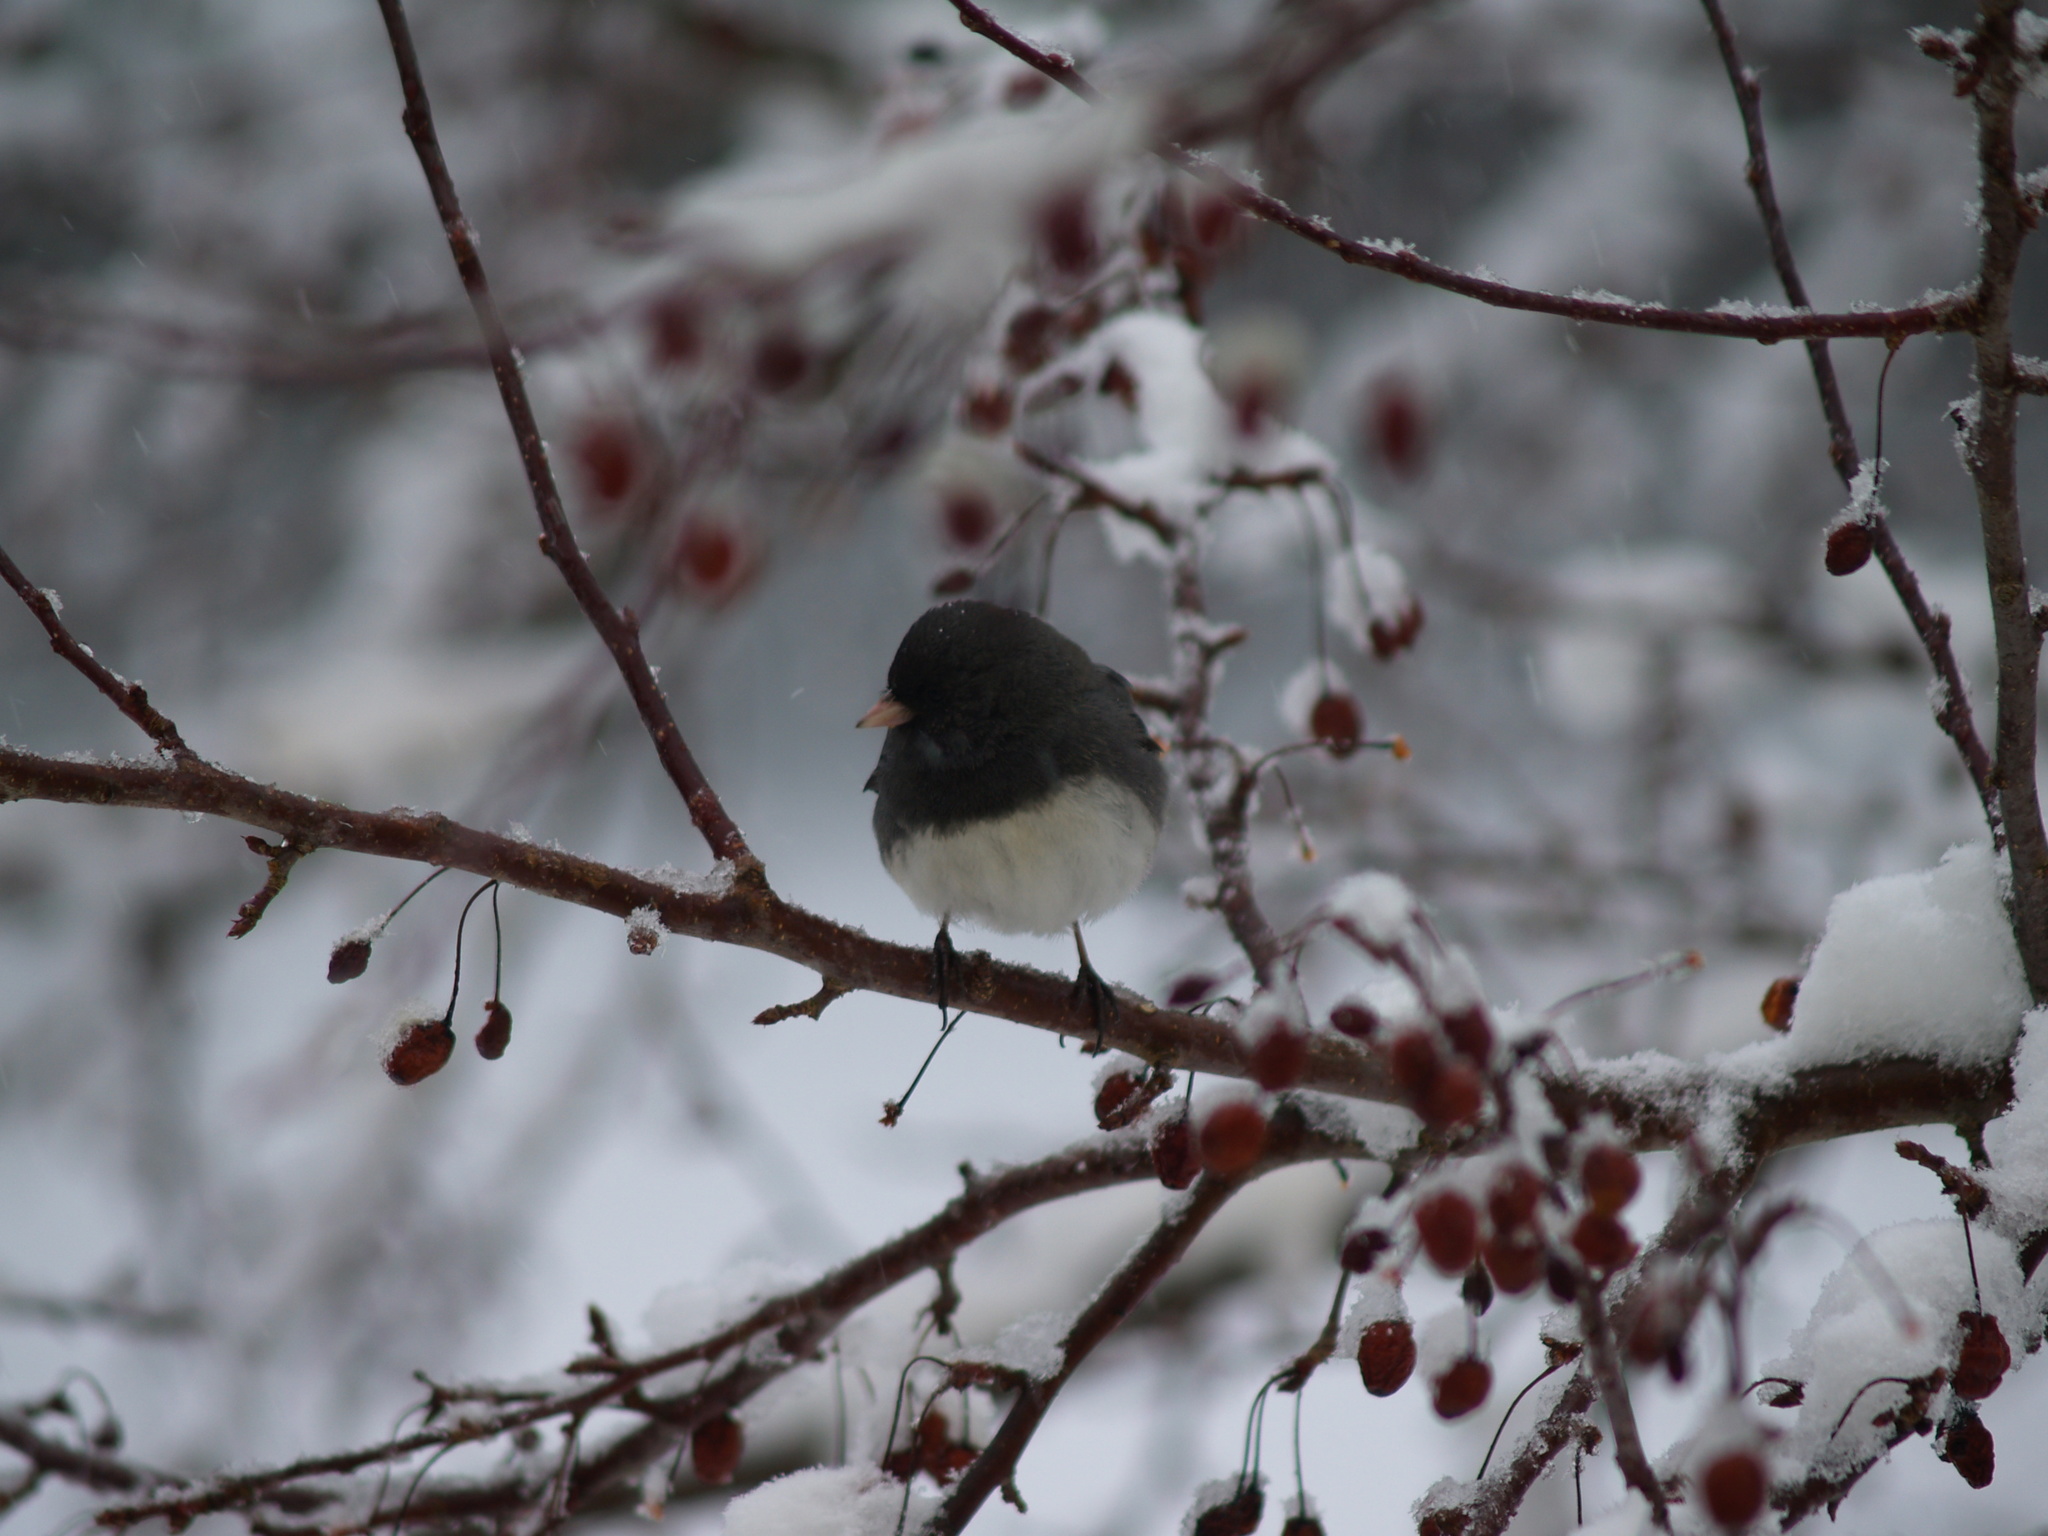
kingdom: Animalia
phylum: Chordata
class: Aves
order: Passeriformes
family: Passerellidae
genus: Junco
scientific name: Junco hyemalis
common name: Dark-eyed junco
